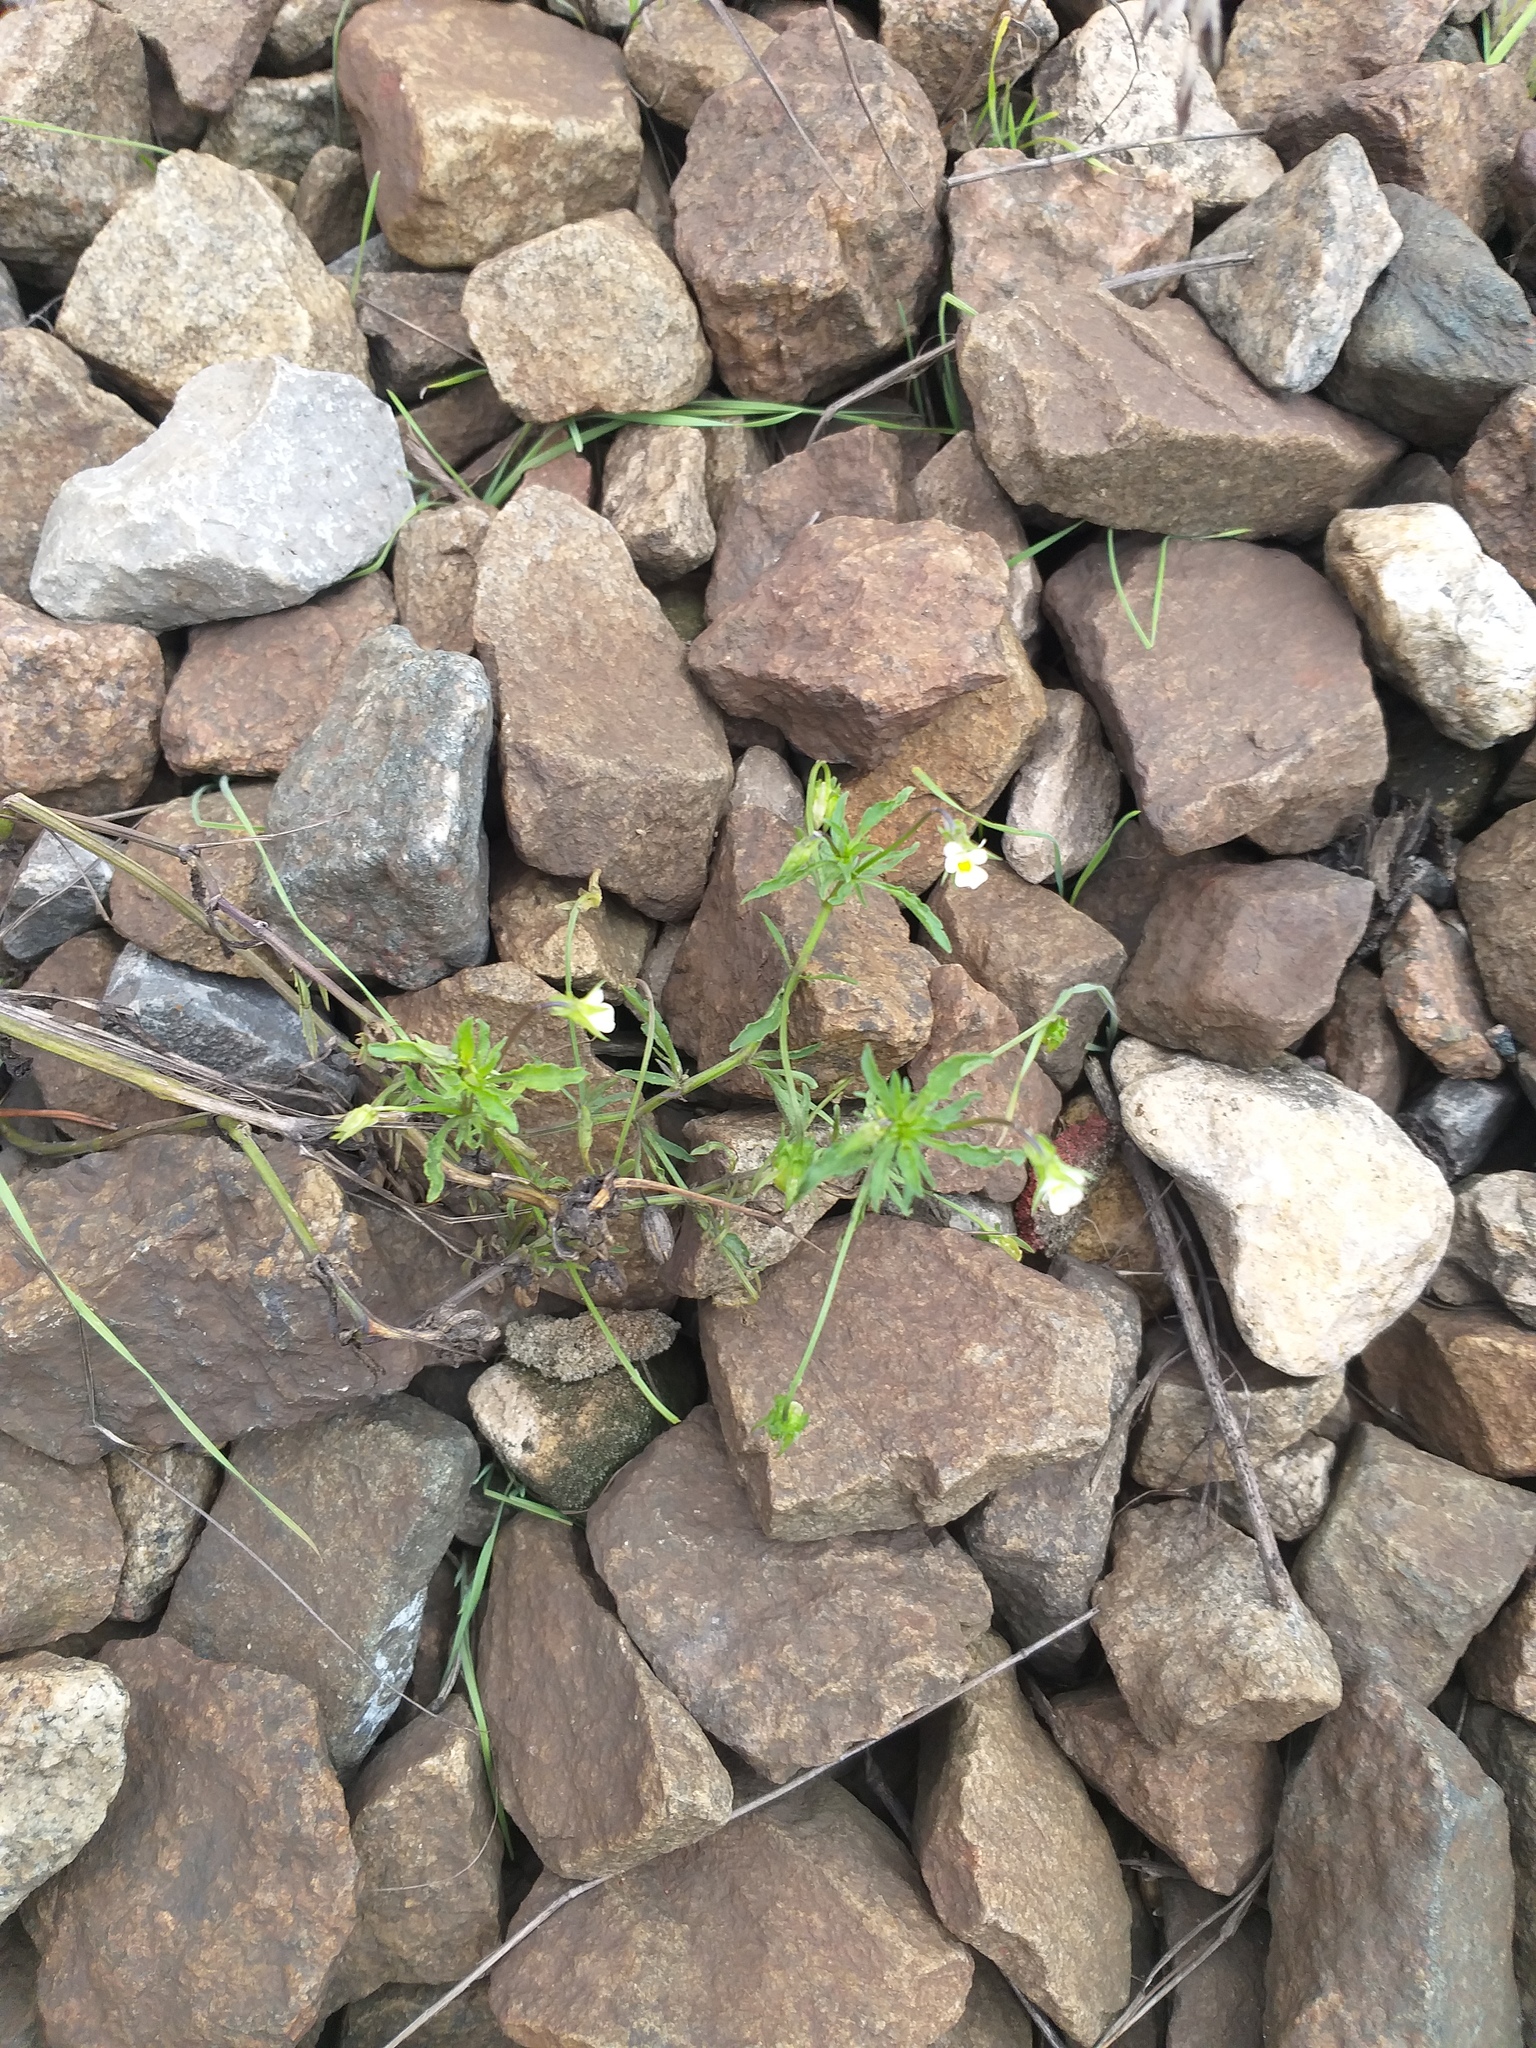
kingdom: Plantae
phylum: Tracheophyta
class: Magnoliopsida
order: Malpighiales
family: Violaceae
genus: Viola
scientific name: Viola arvensis
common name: Field pansy
